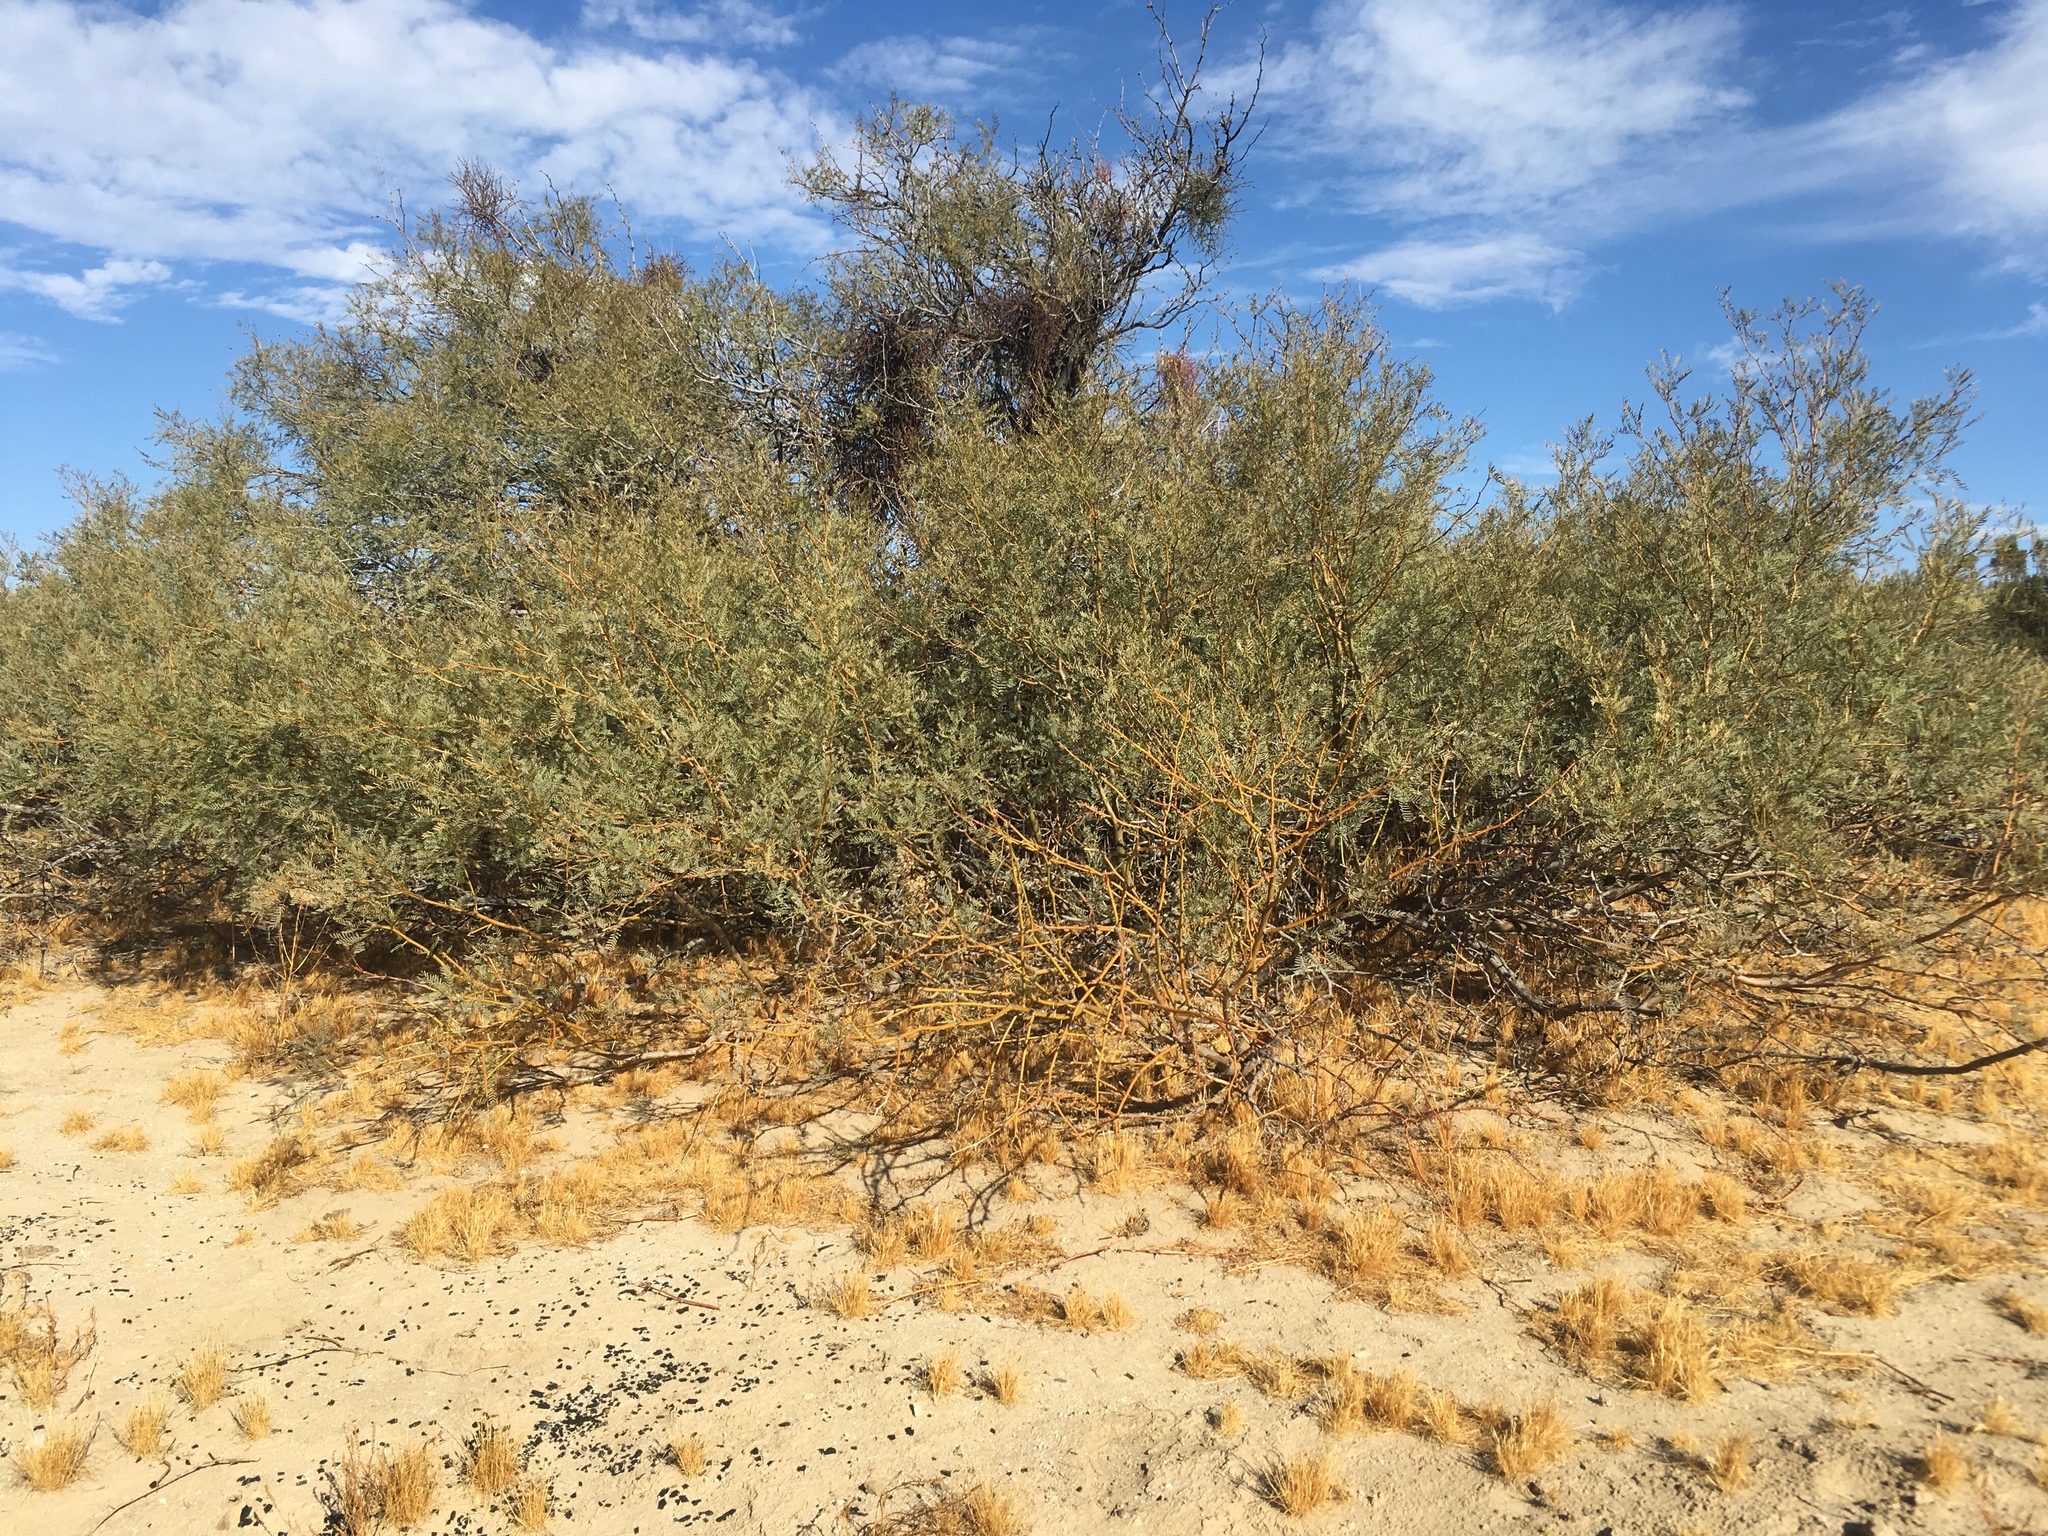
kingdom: Plantae
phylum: Tracheophyta
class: Magnoliopsida
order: Fabales
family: Fabaceae
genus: Prosopis
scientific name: Prosopis pubescens
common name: Screw-bean
